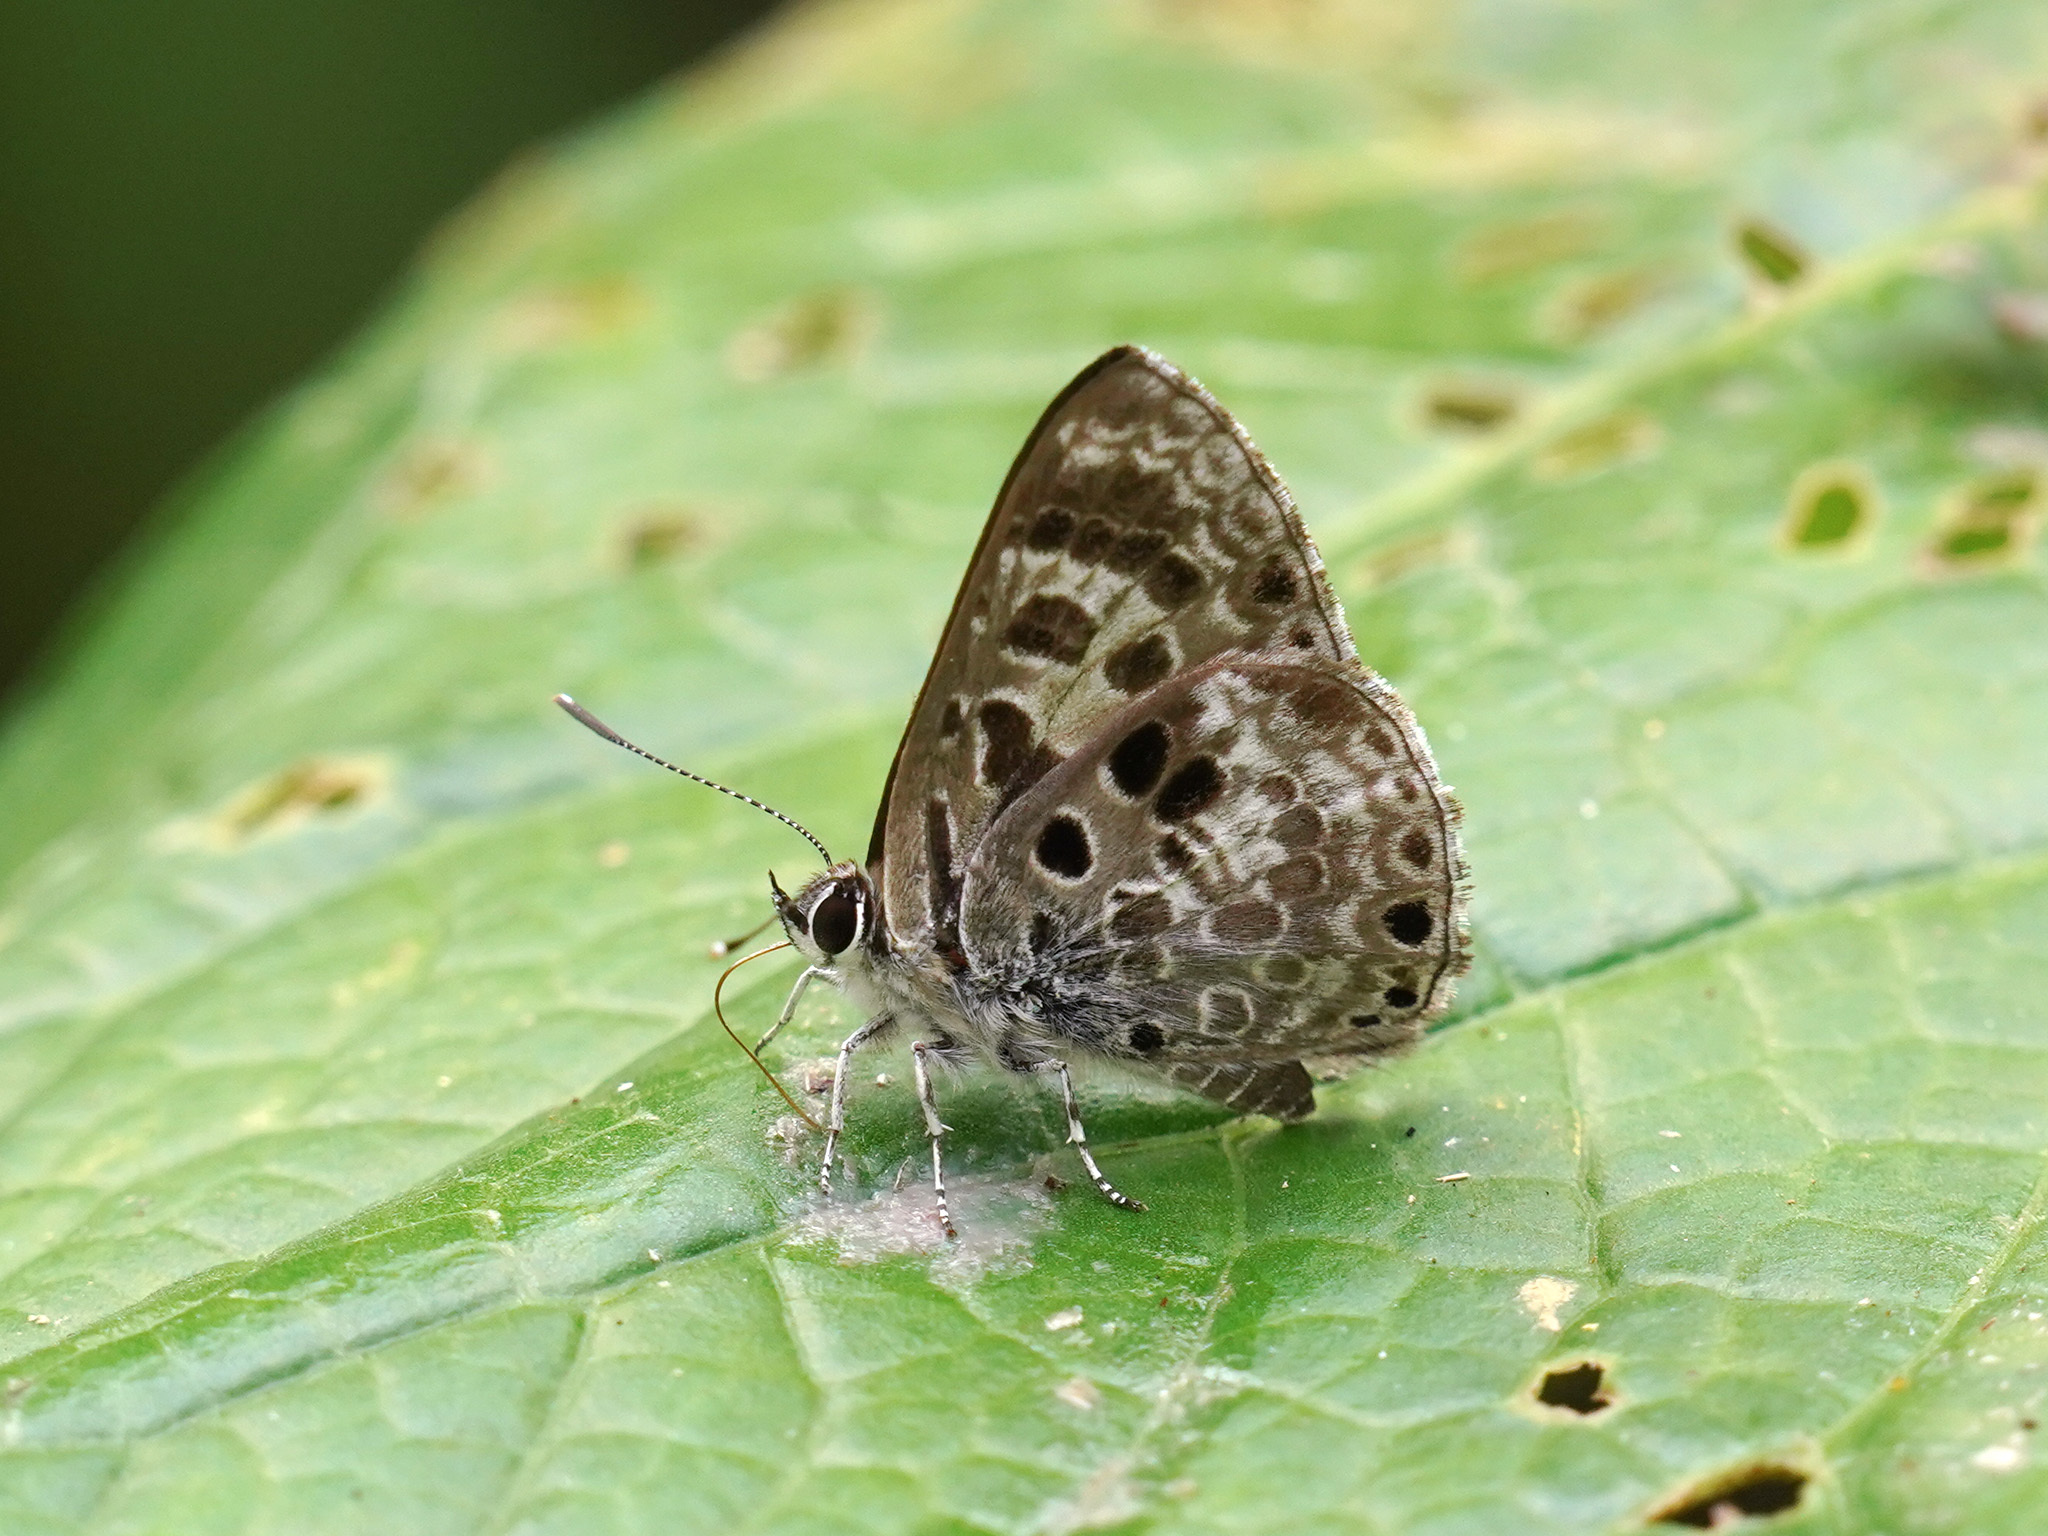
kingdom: Animalia
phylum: Arthropoda
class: Insecta
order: Lepidoptera
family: Lycaenidae
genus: Niphanda
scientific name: Niphanda asialis
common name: White-banded pierrot
